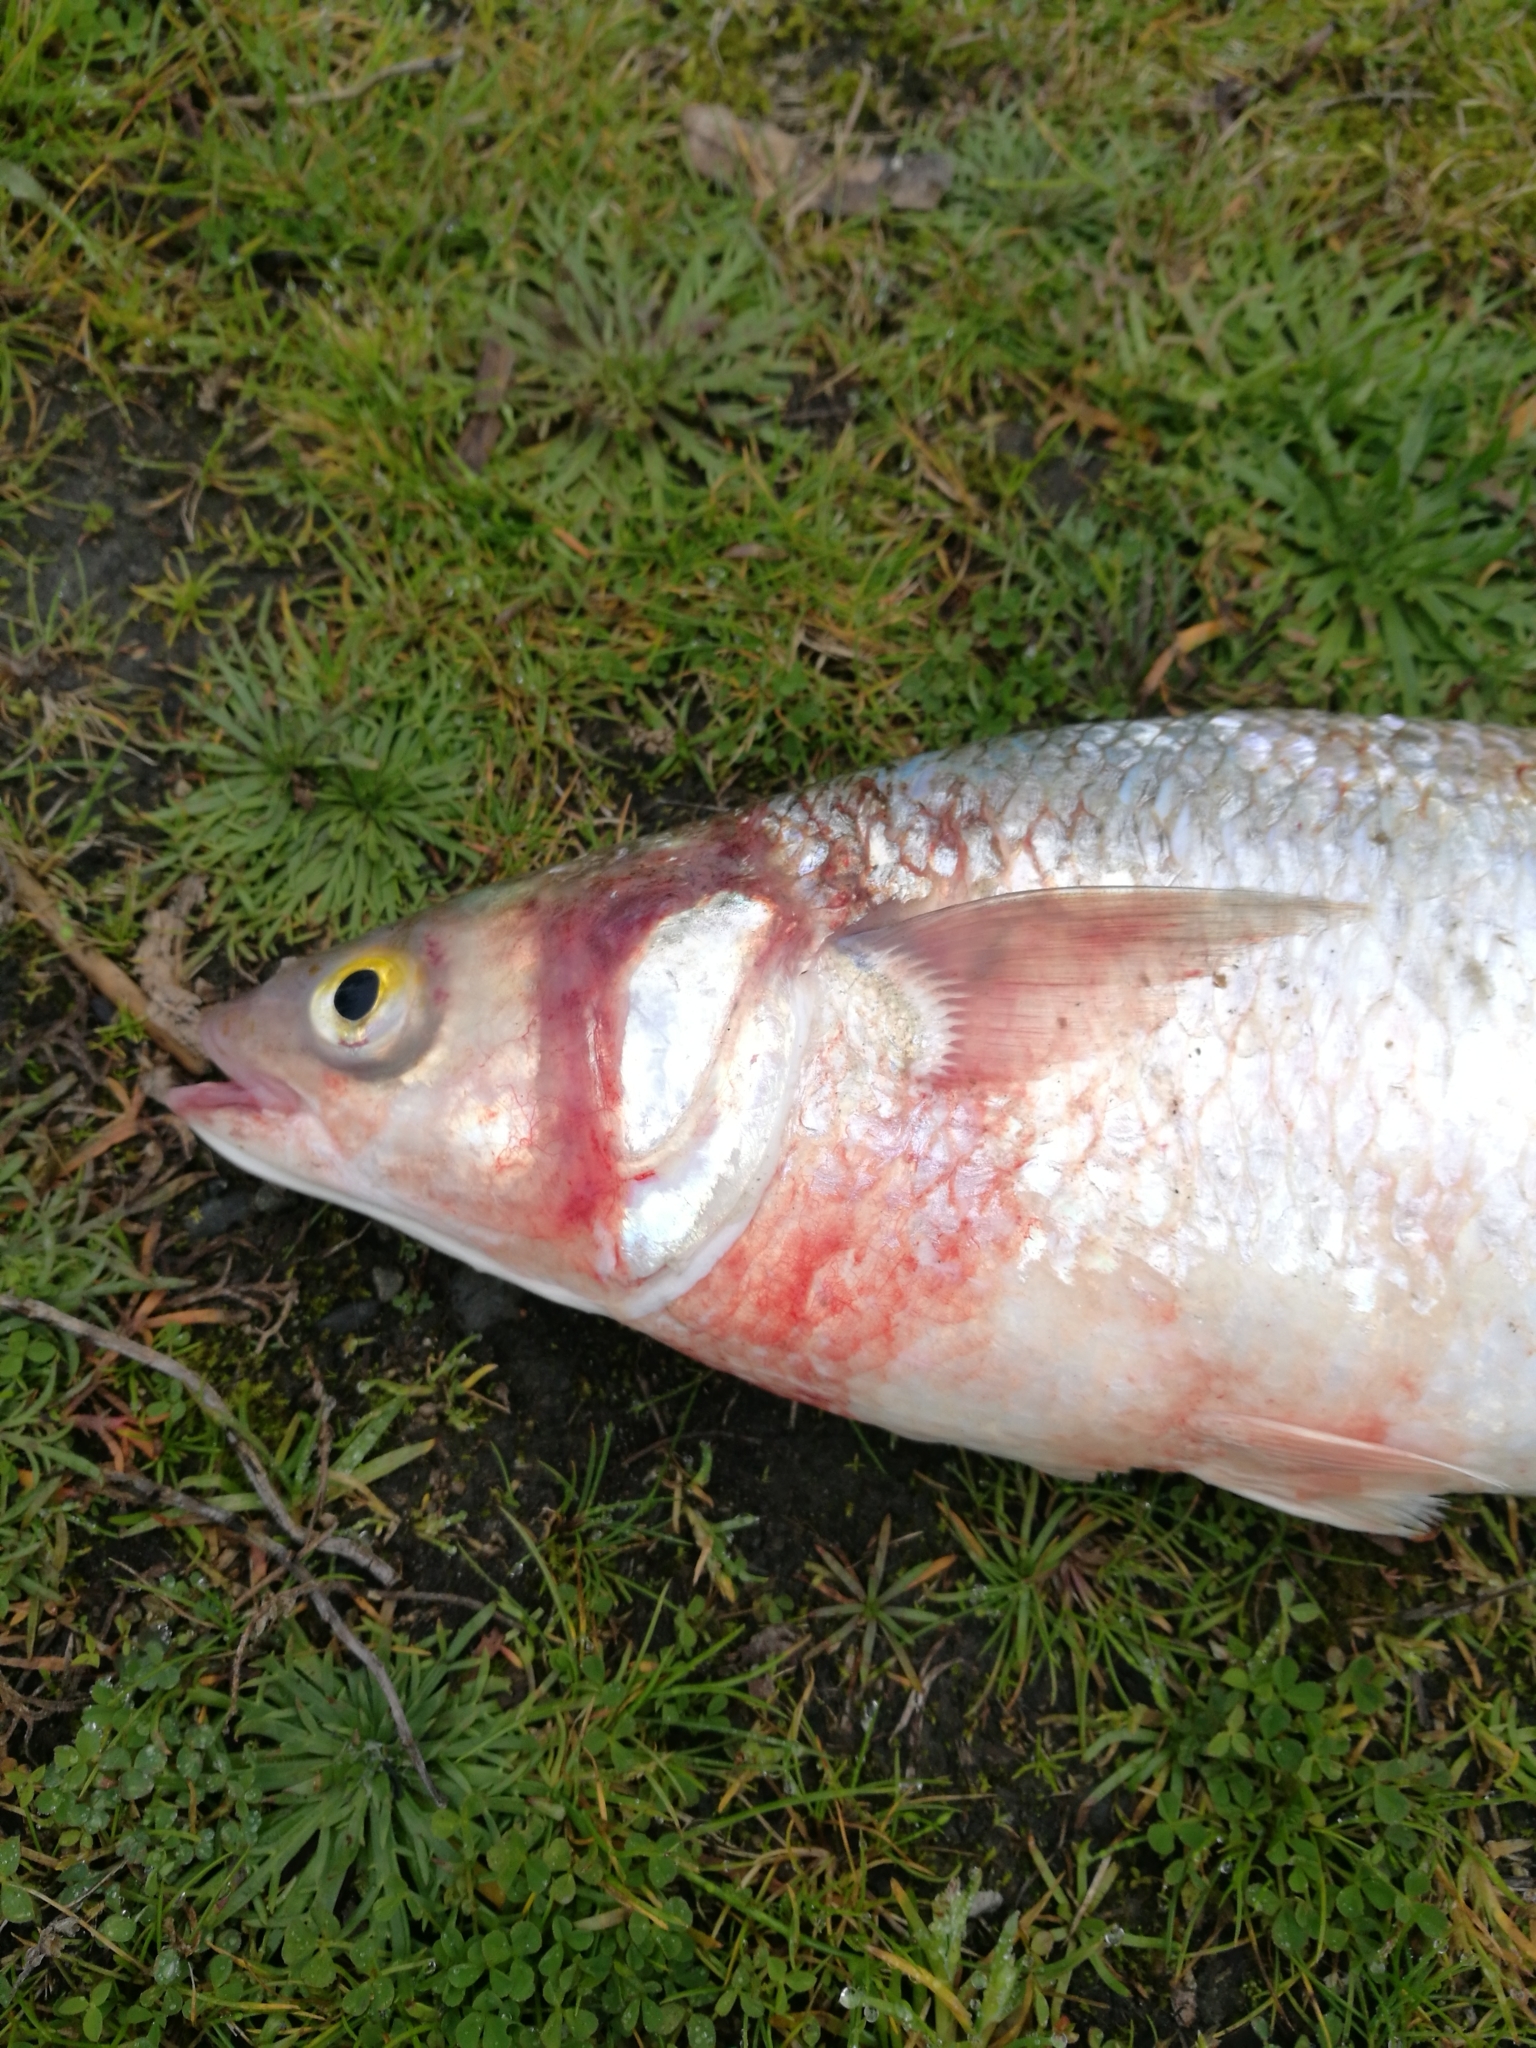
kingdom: Animalia
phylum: Chordata
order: Mugiliformes
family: Mugilidae
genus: Aldrichetta
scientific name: Aldrichetta forsteri
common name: Yellow-eye mullet
